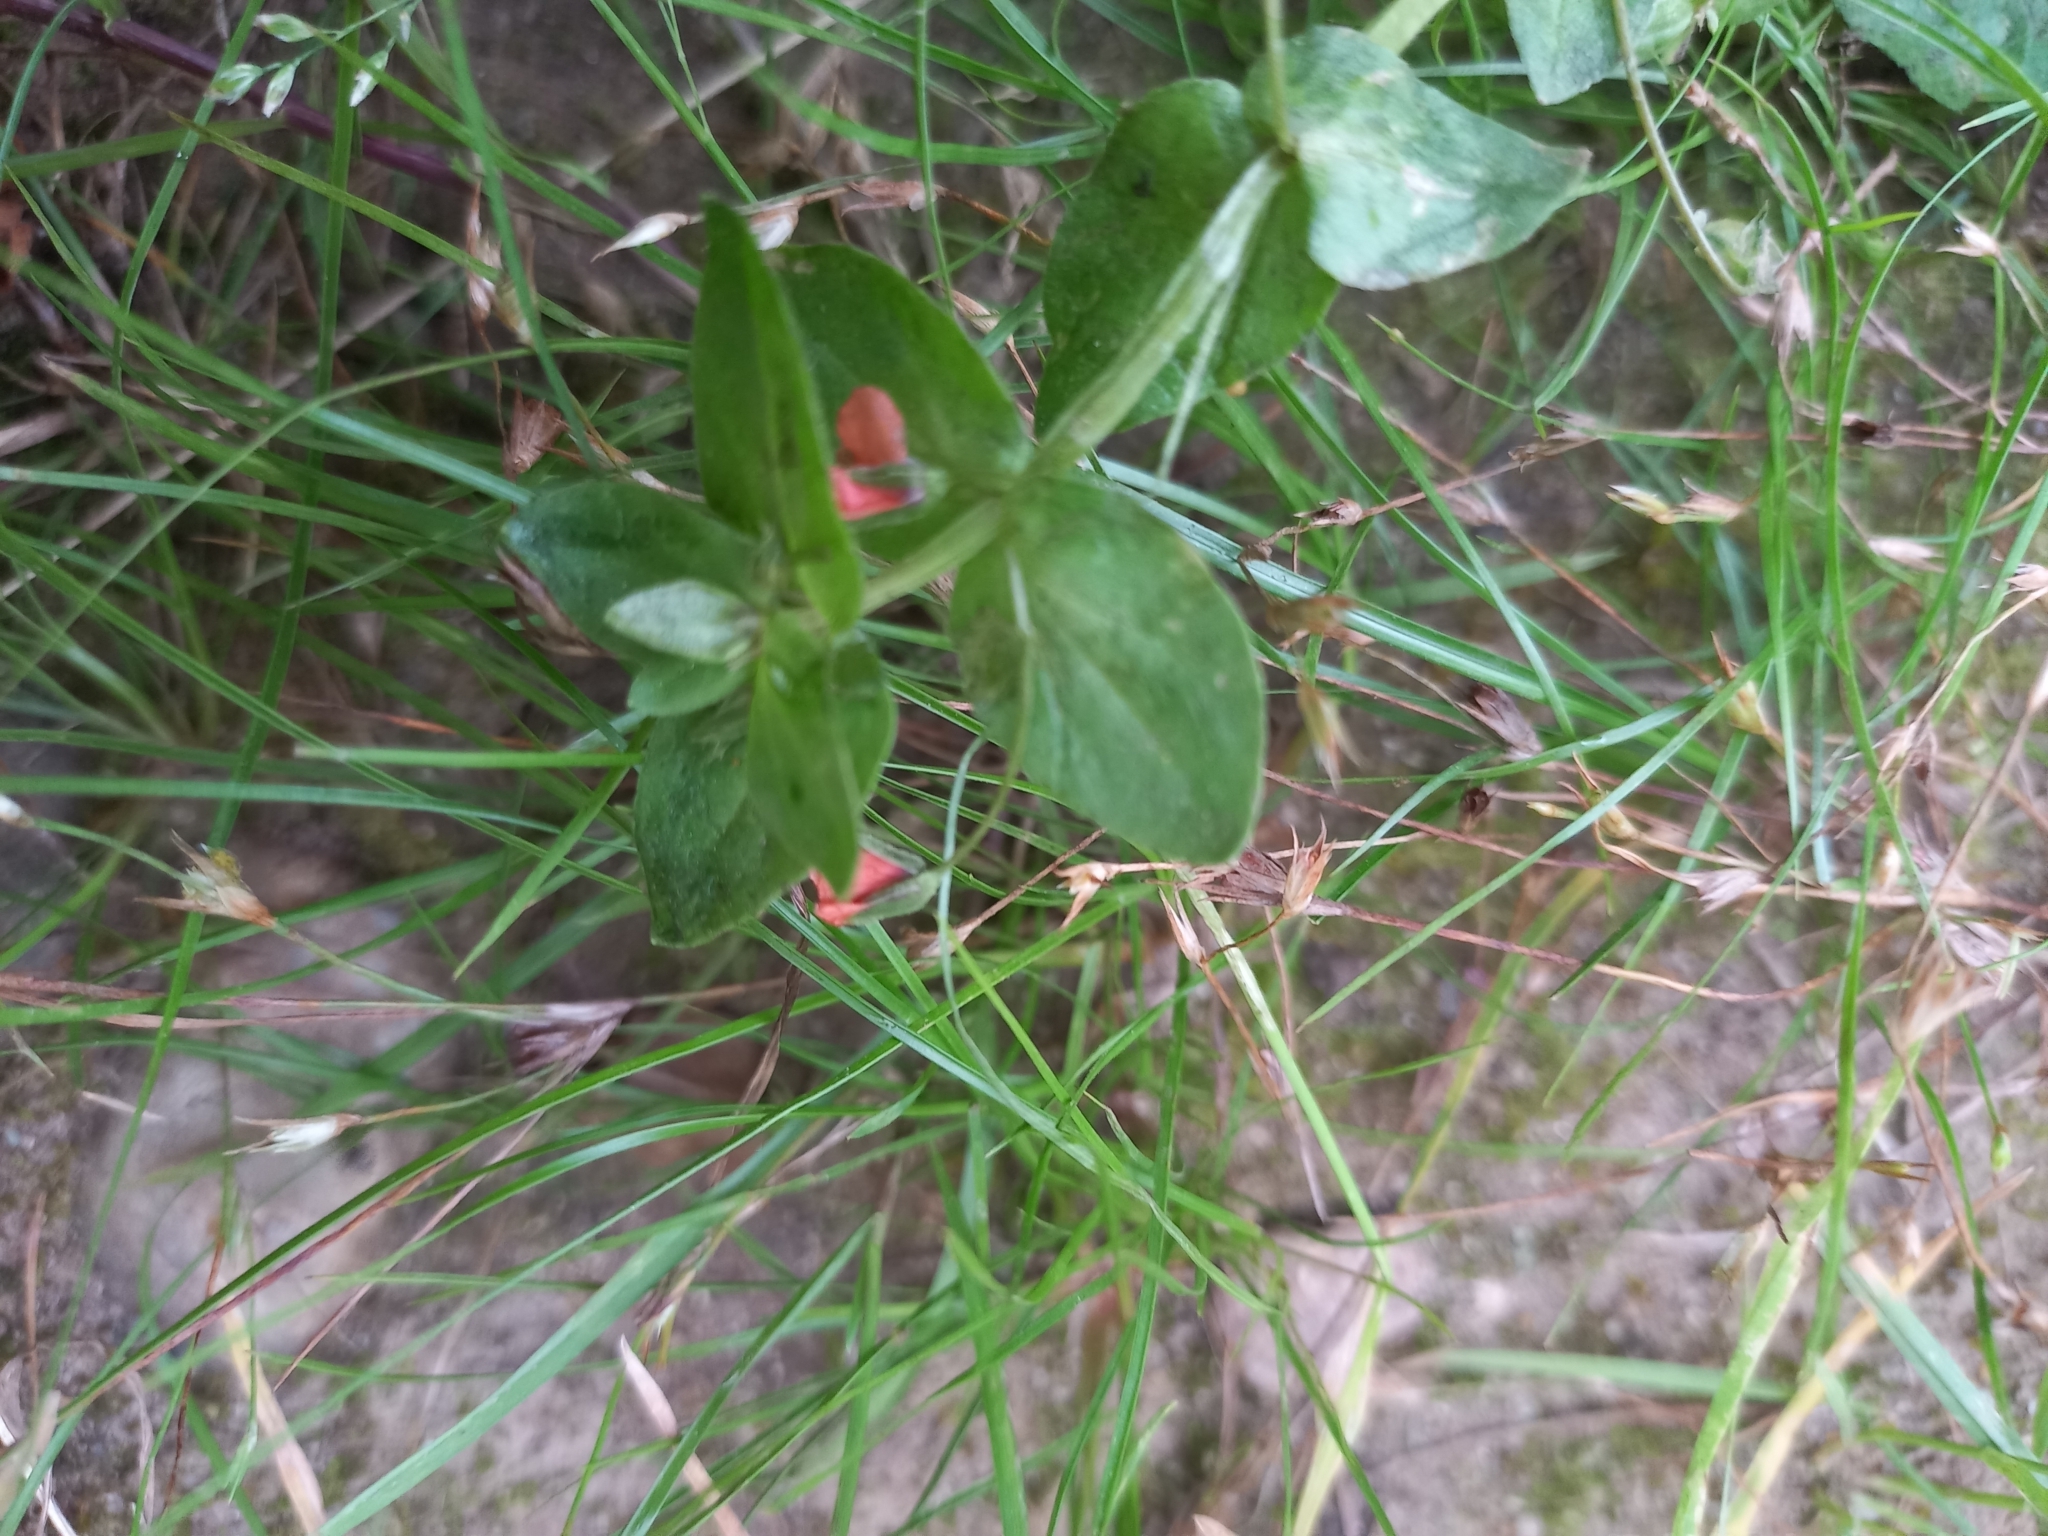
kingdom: Plantae
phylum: Tracheophyta
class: Magnoliopsida
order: Ericales
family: Primulaceae
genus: Lysimachia
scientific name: Lysimachia arvensis
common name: Scarlet pimpernel
